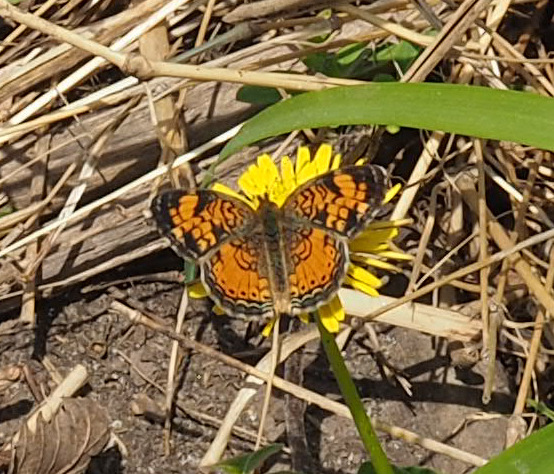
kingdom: Animalia
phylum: Arthropoda
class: Insecta
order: Lepidoptera
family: Nymphalidae
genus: Phyciodes
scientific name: Phyciodes tharos
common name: Pearl crescent
